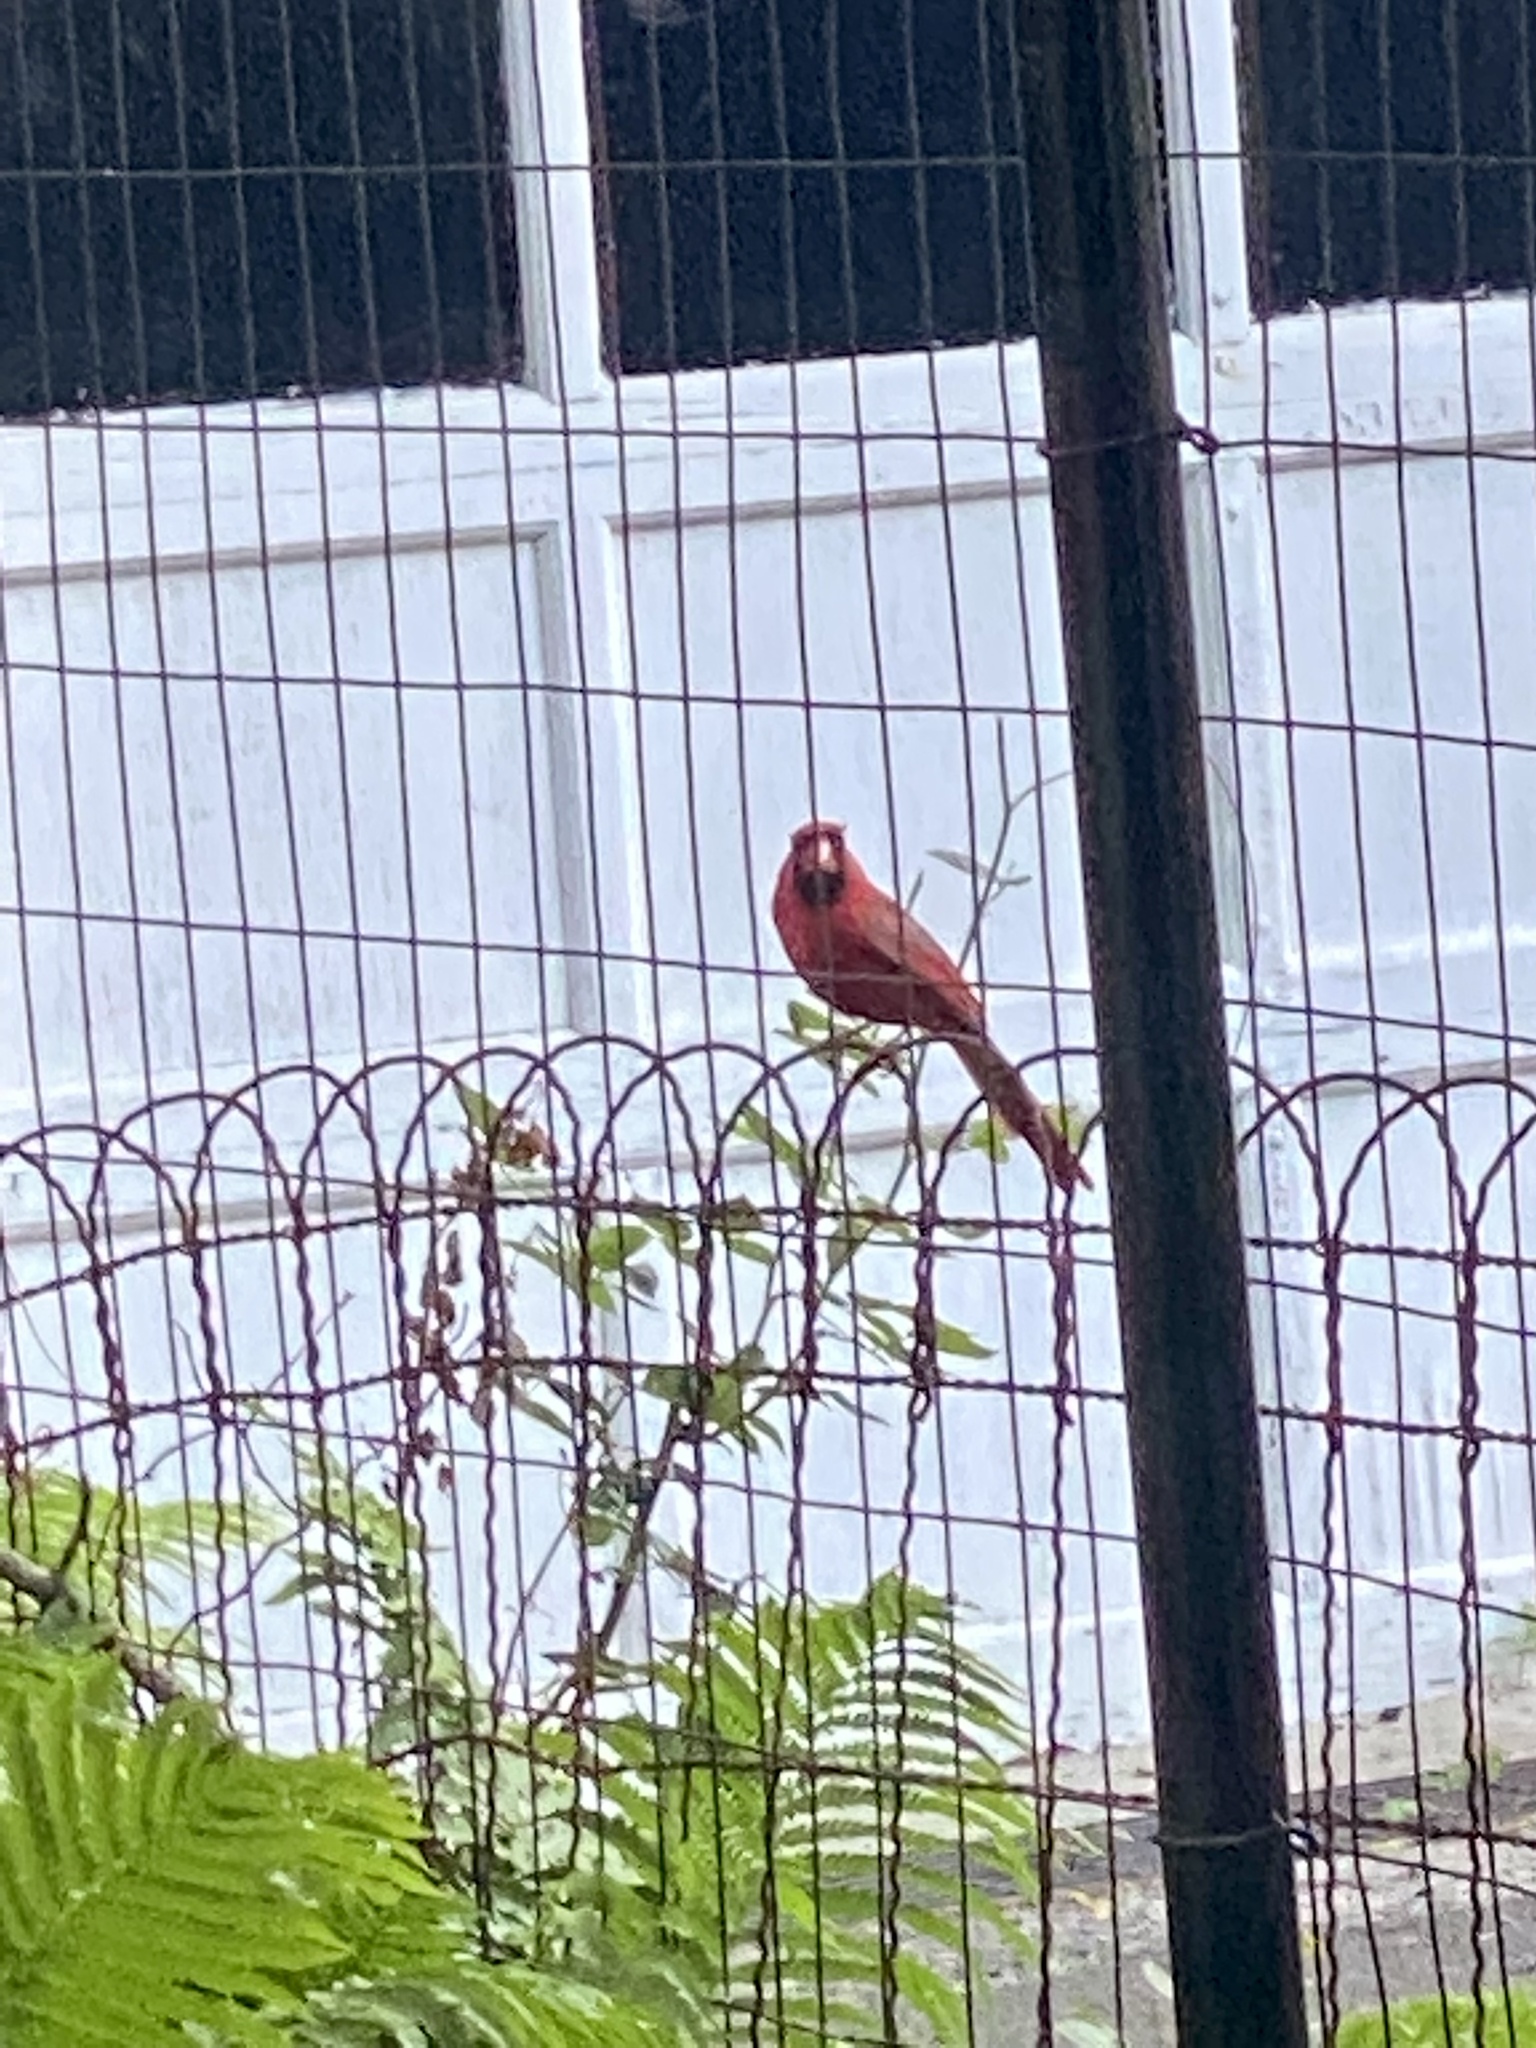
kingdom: Animalia
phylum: Chordata
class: Aves
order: Passeriformes
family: Cardinalidae
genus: Cardinalis
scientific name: Cardinalis cardinalis
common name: Northern cardinal
